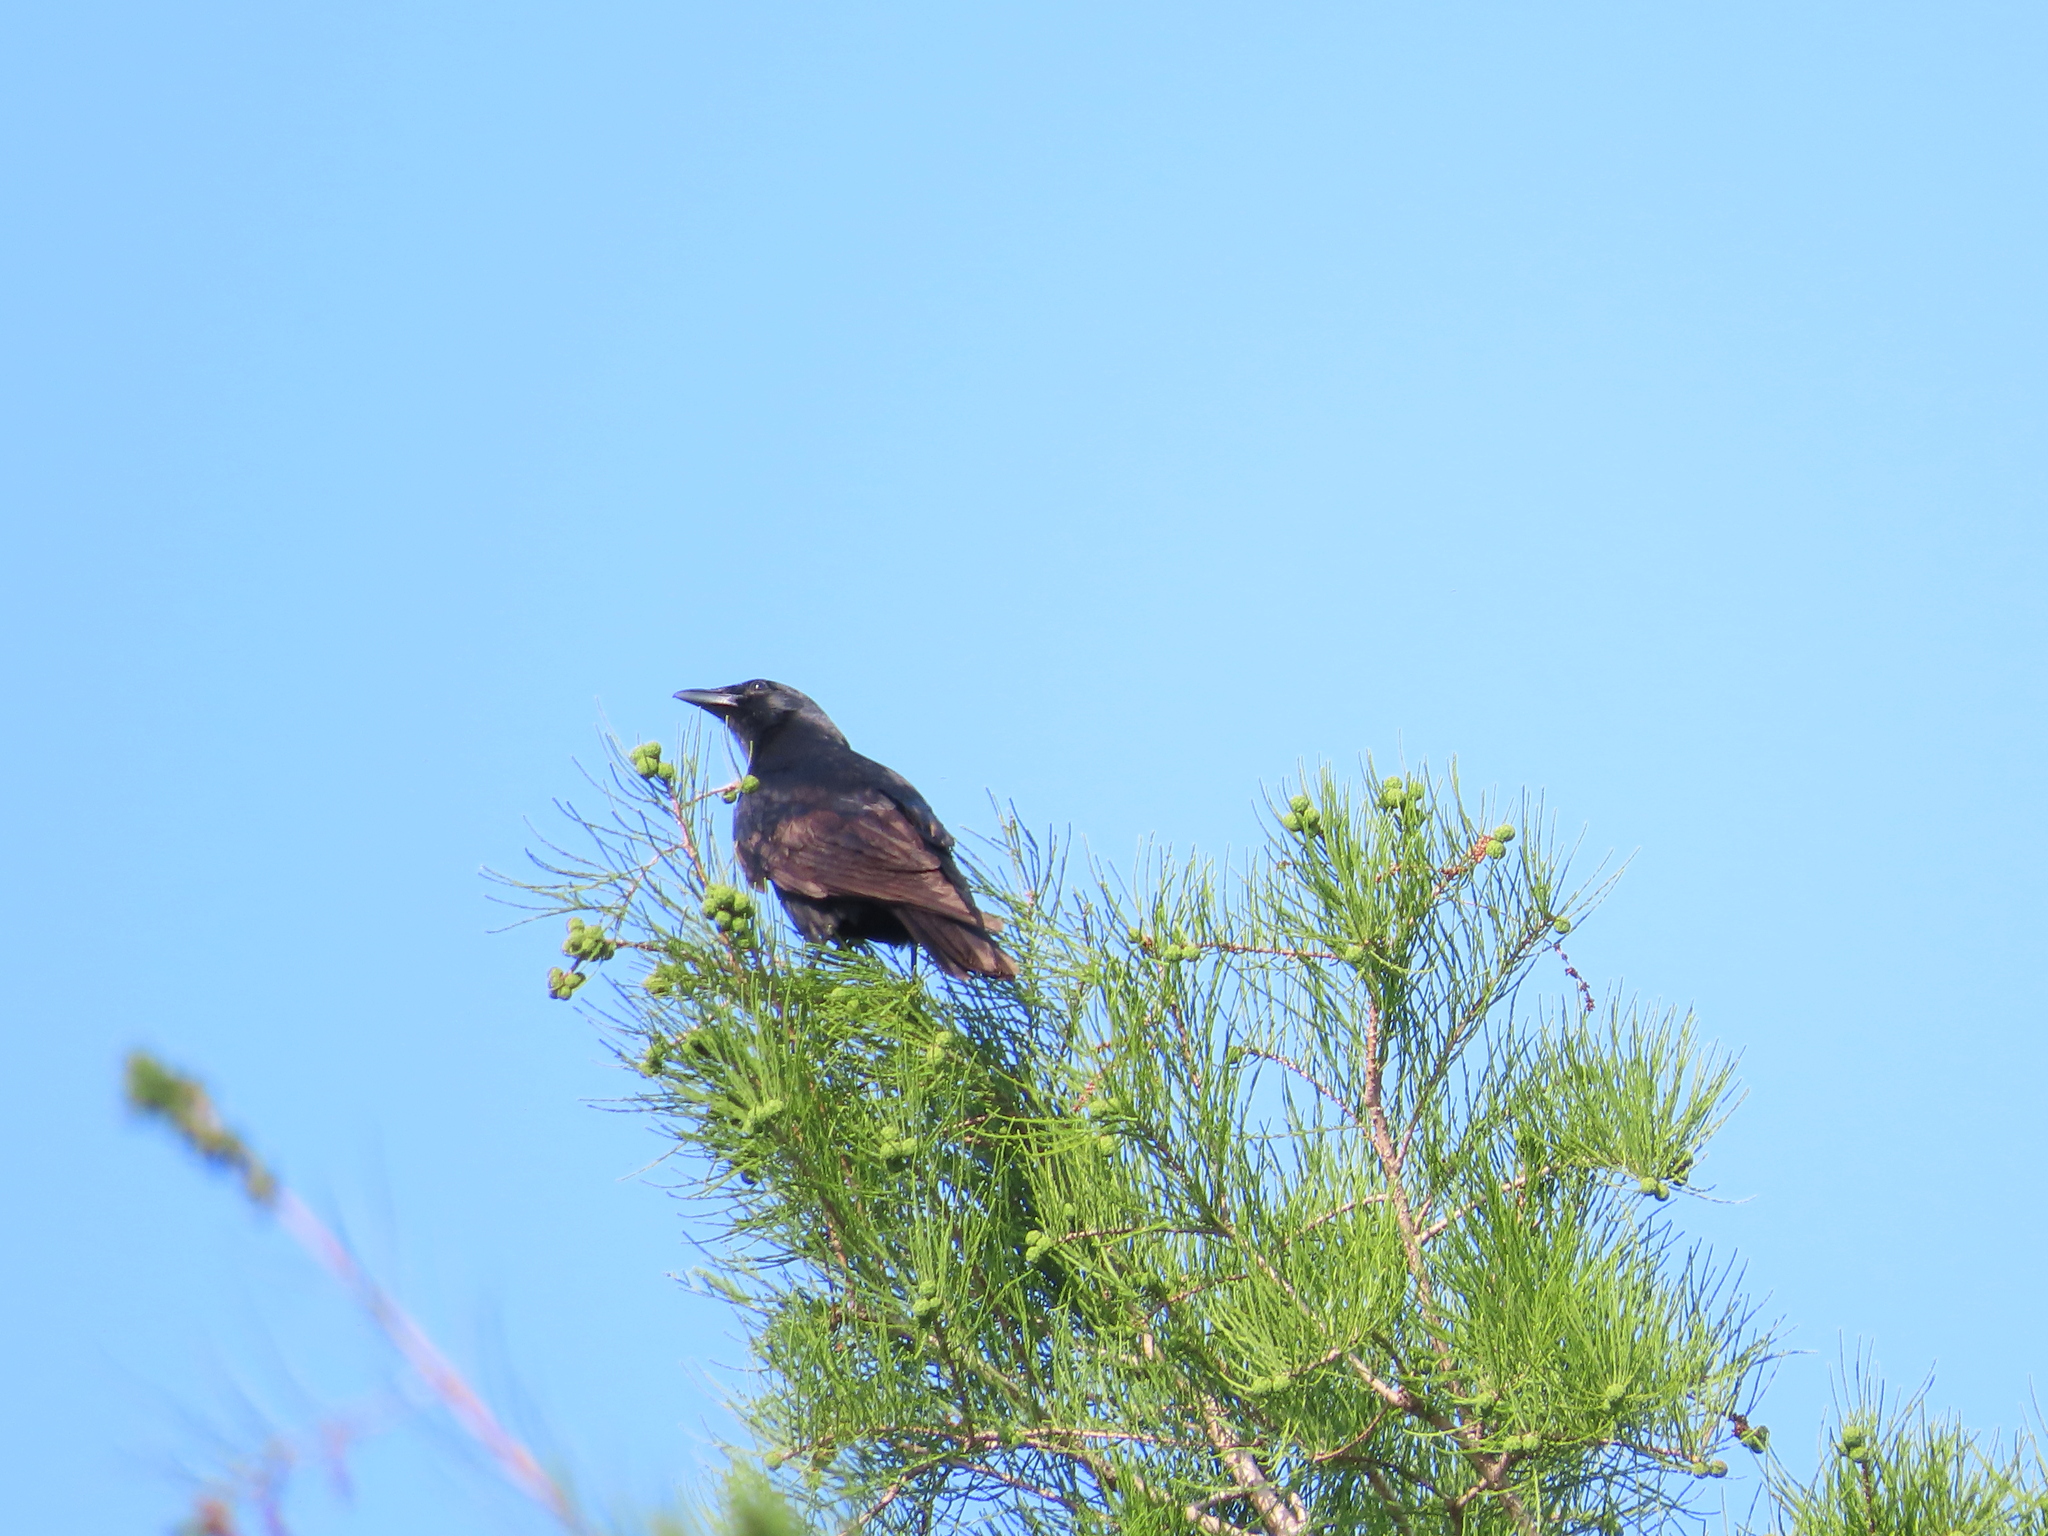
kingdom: Animalia
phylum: Chordata
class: Aves
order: Passeriformes
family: Corvidae
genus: Corvus
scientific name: Corvus brachyrhynchos
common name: American crow
